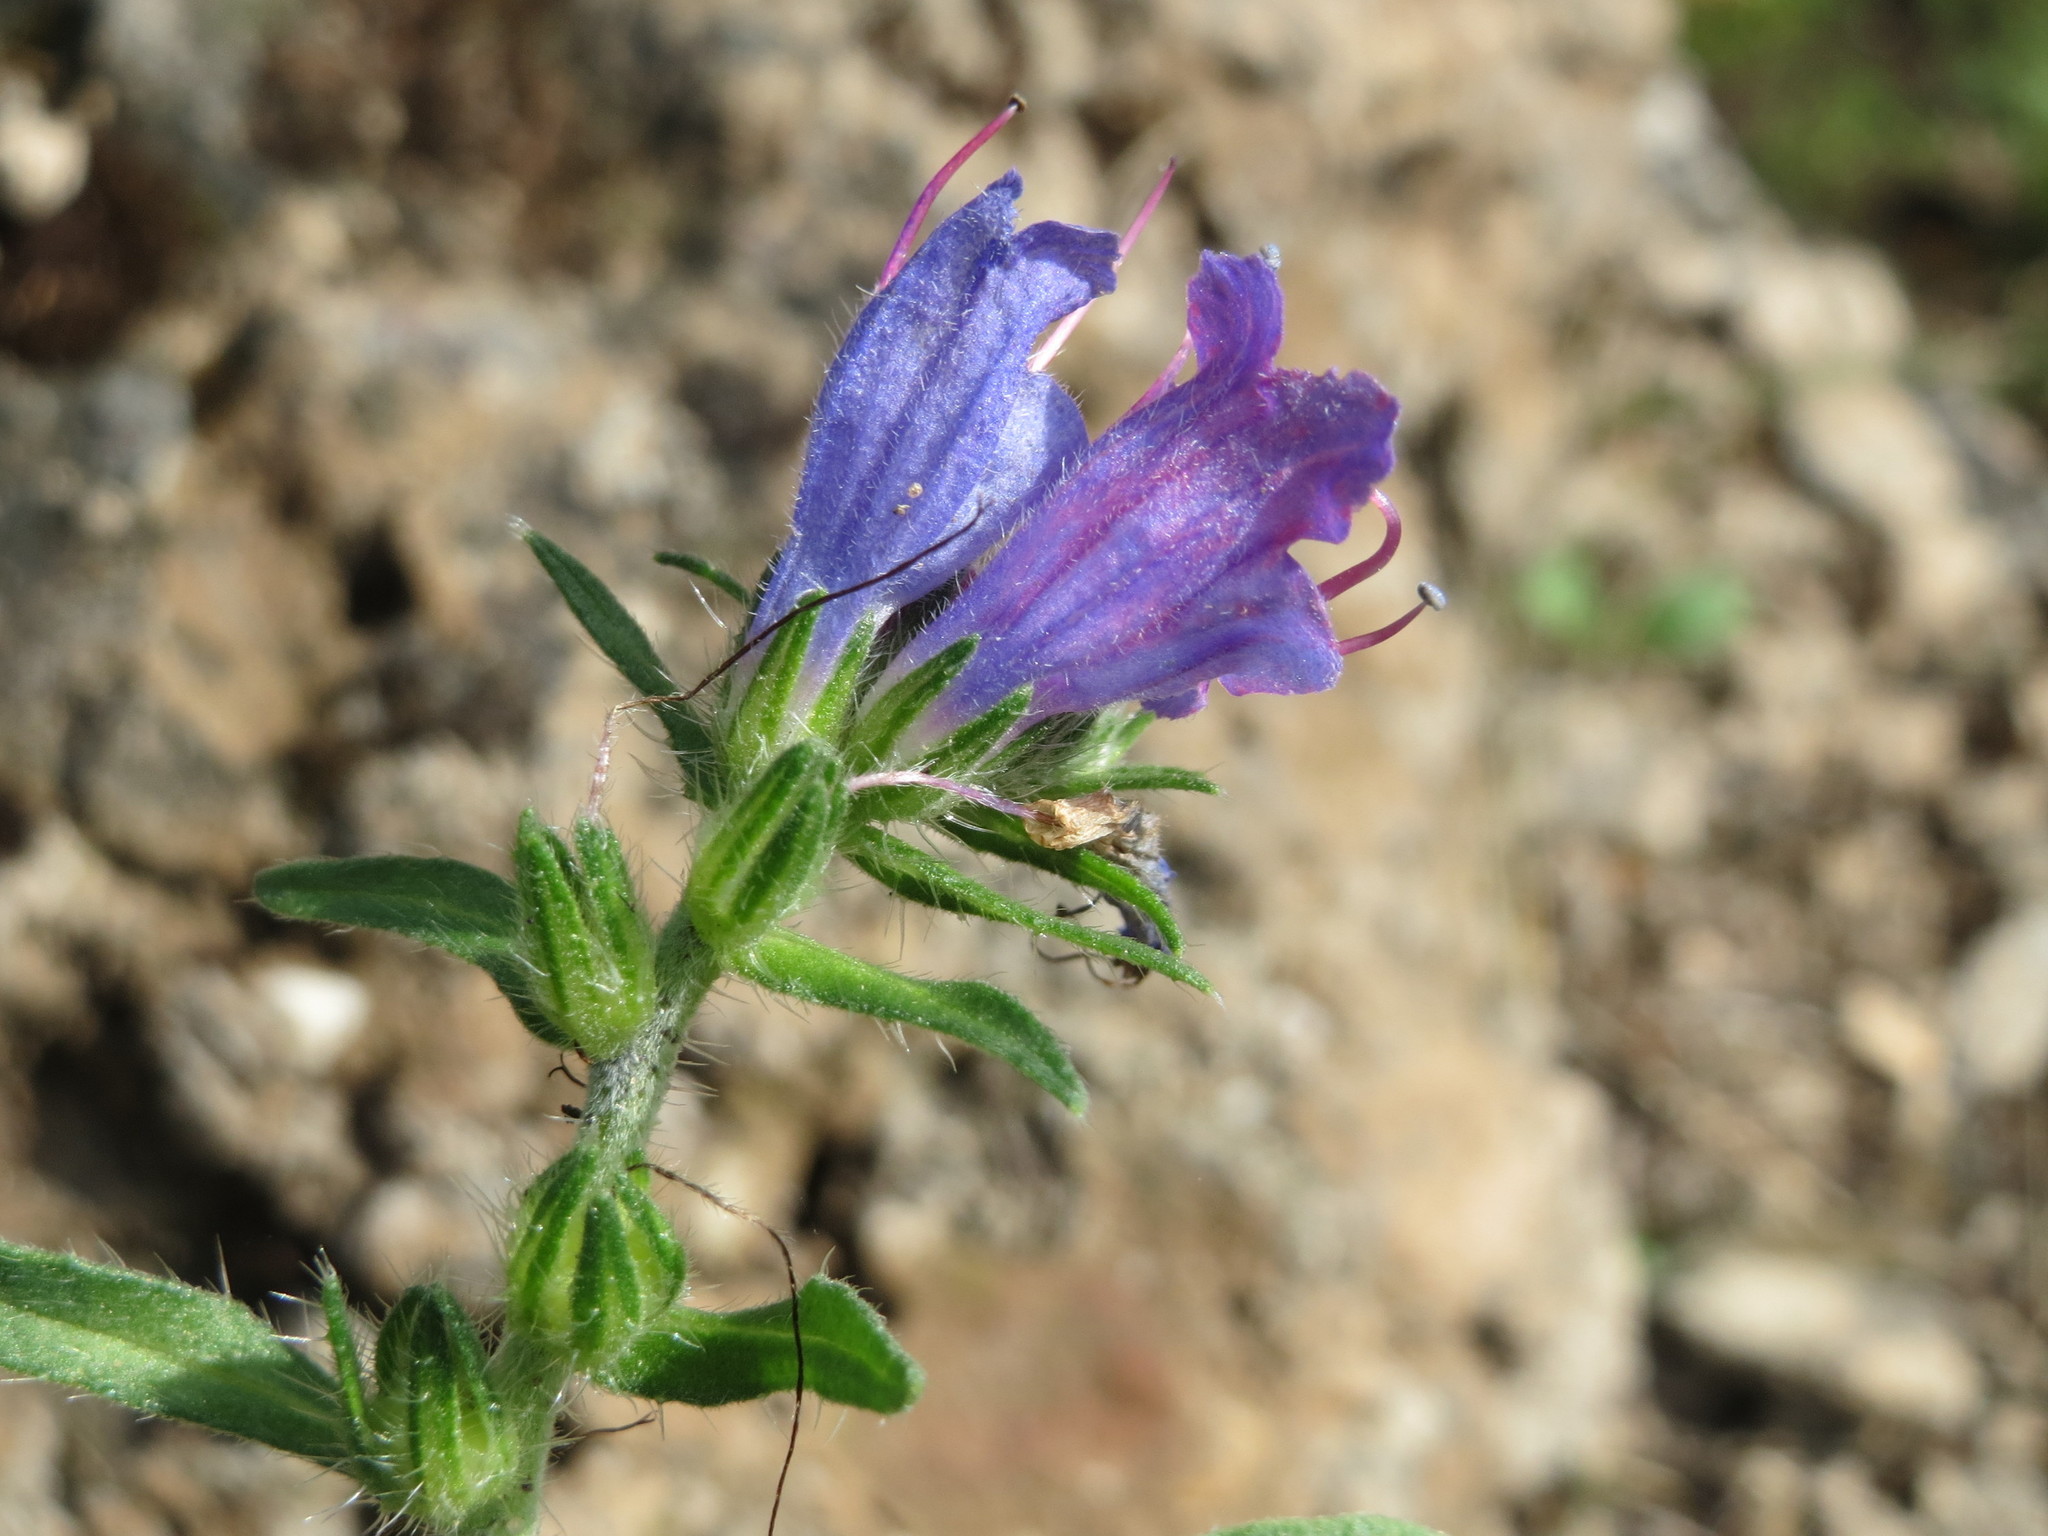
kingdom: Plantae
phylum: Tracheophyta
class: Magnoliopsida
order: Boraginales
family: Boraginaceae
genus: Echium
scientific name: Echium vulgare
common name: Common viper's bugloss
